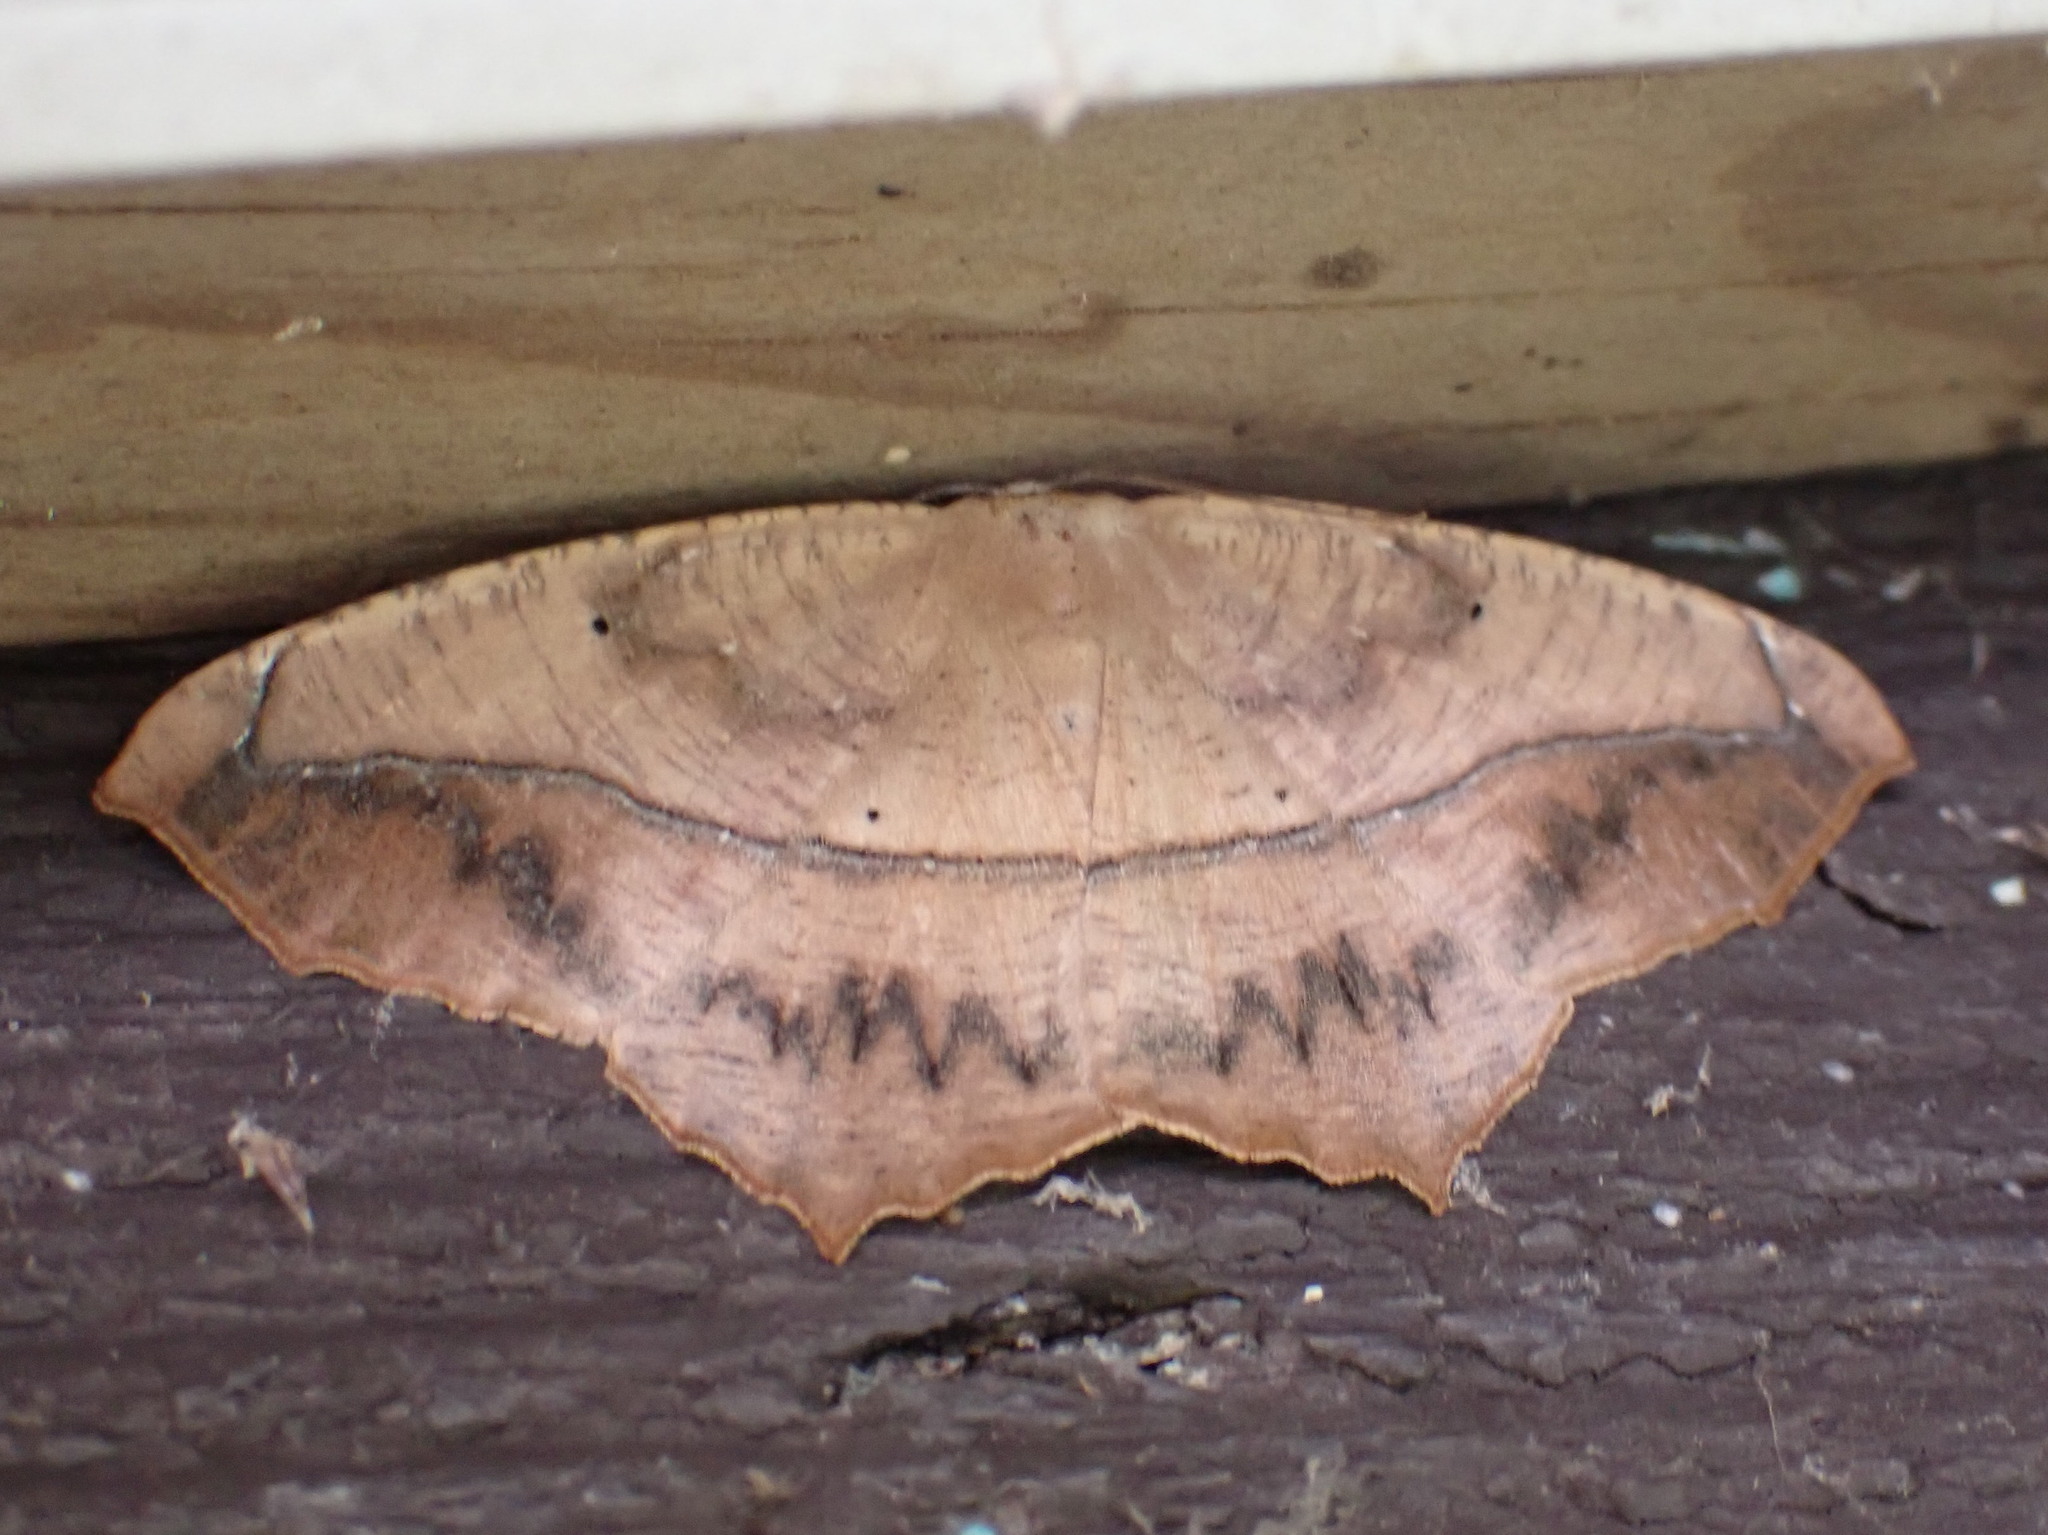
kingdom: Animalia
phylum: Arthropoda
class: Insecta
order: Lepidoptera
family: Geometridae
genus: Prochoerodes
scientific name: Prochoerodes lineola
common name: Large maple spanworm
